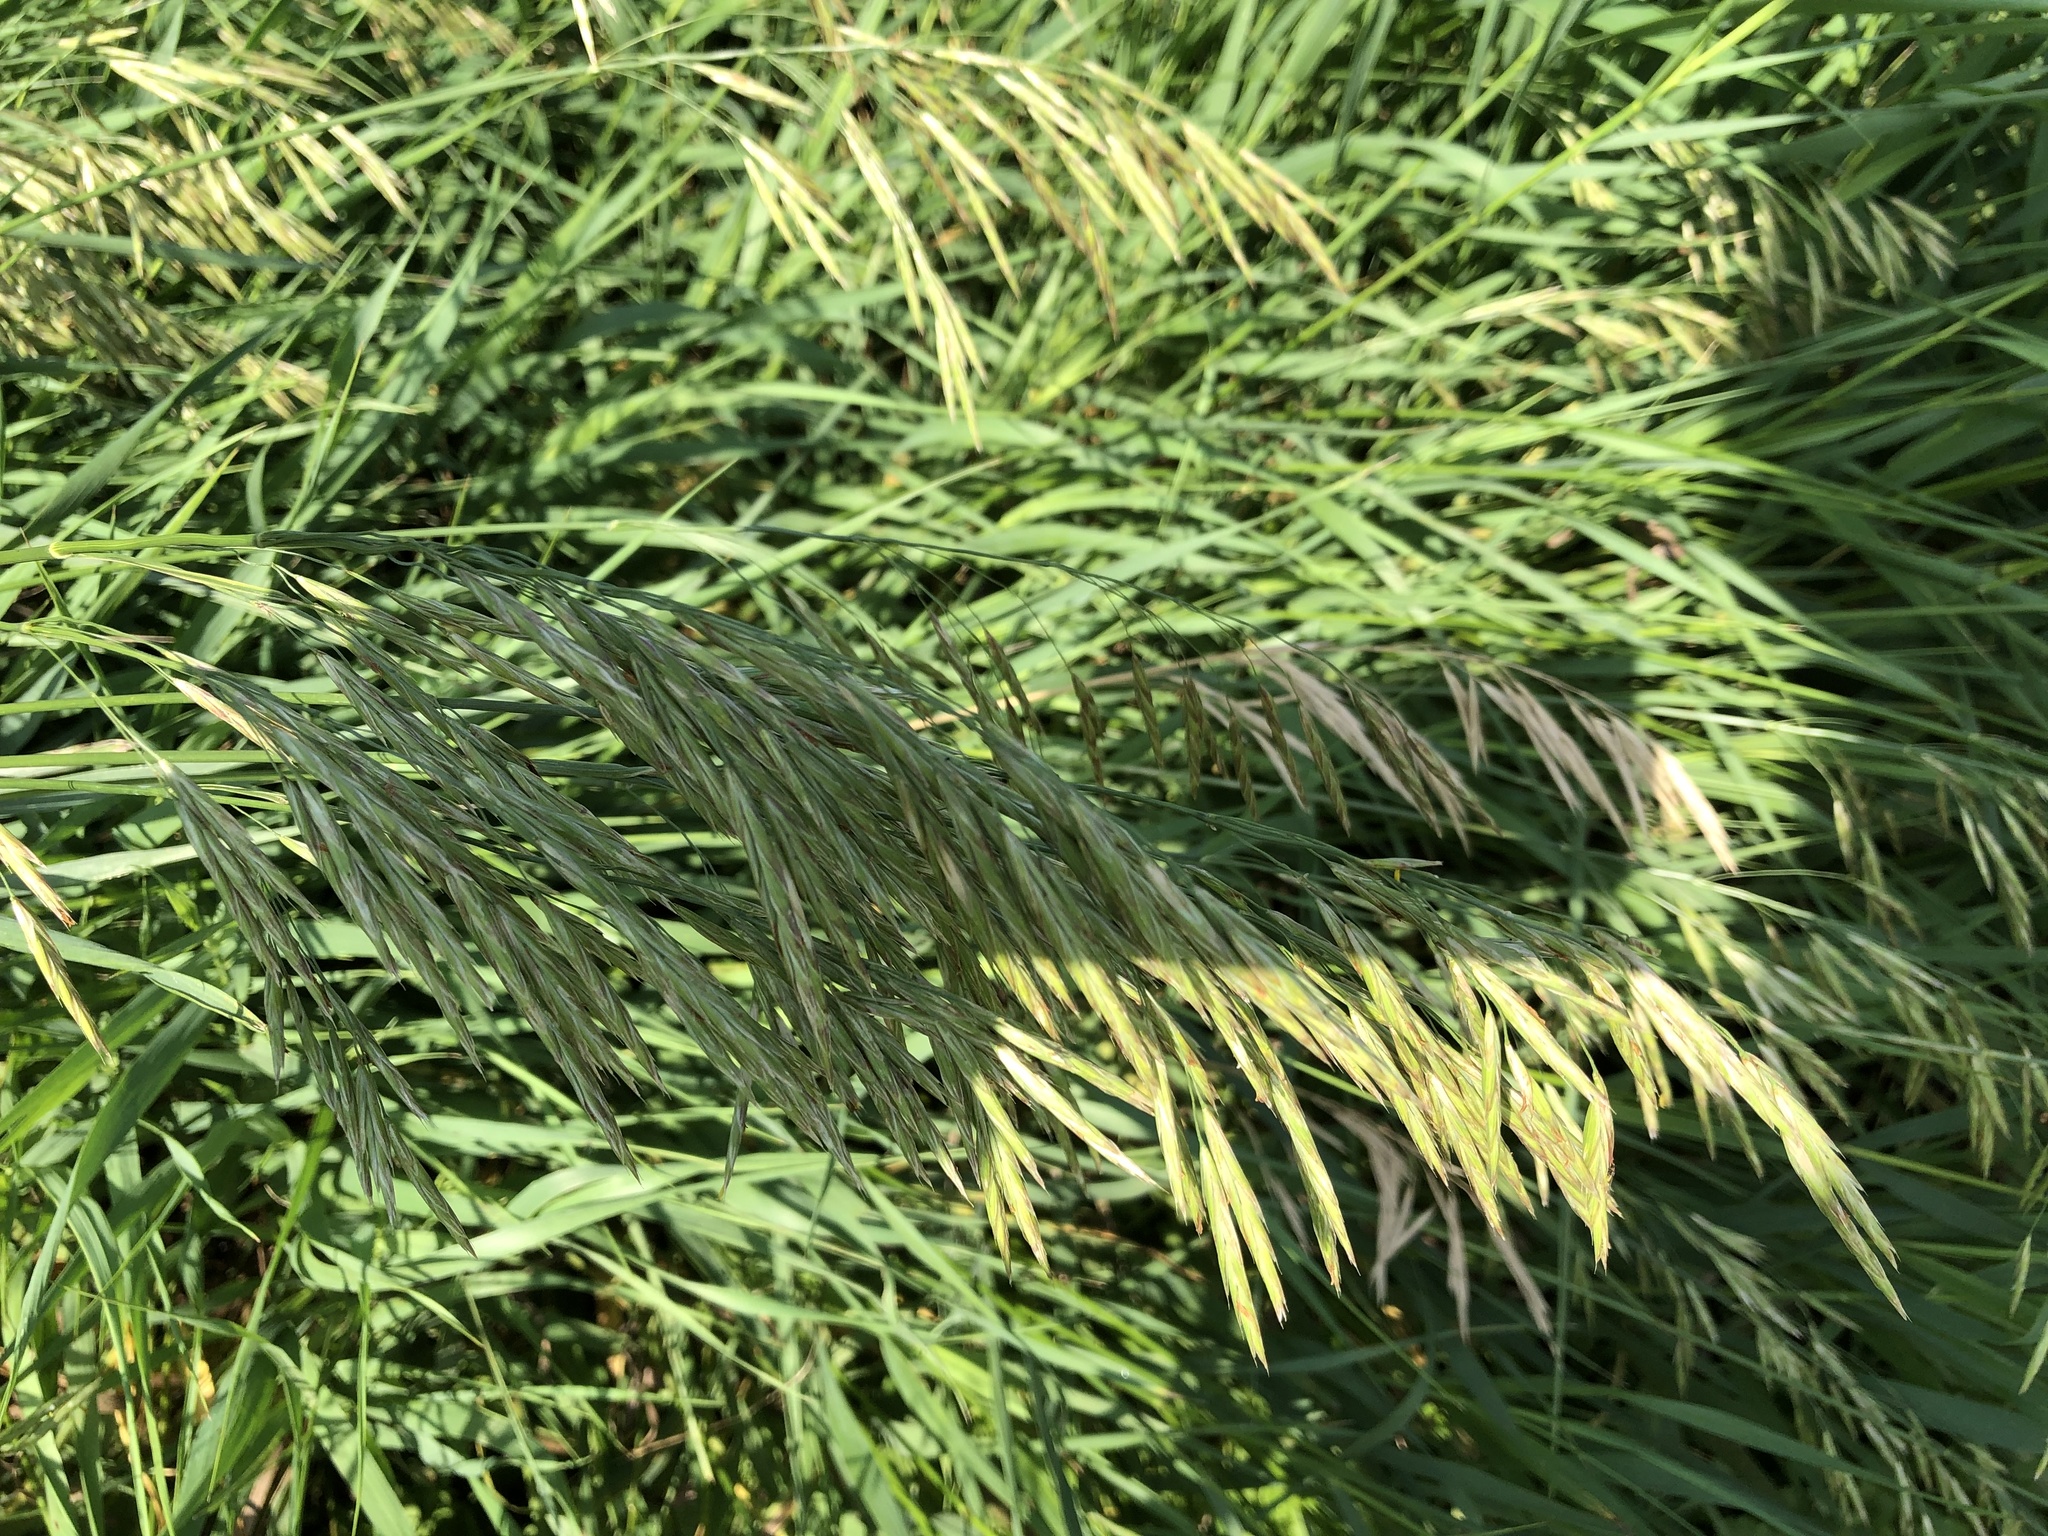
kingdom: Plantae
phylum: Tracheophyta
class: Liliopsida
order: Poales
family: Poaceae
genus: Bromus
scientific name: Bromus inermis
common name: Smooth brome
